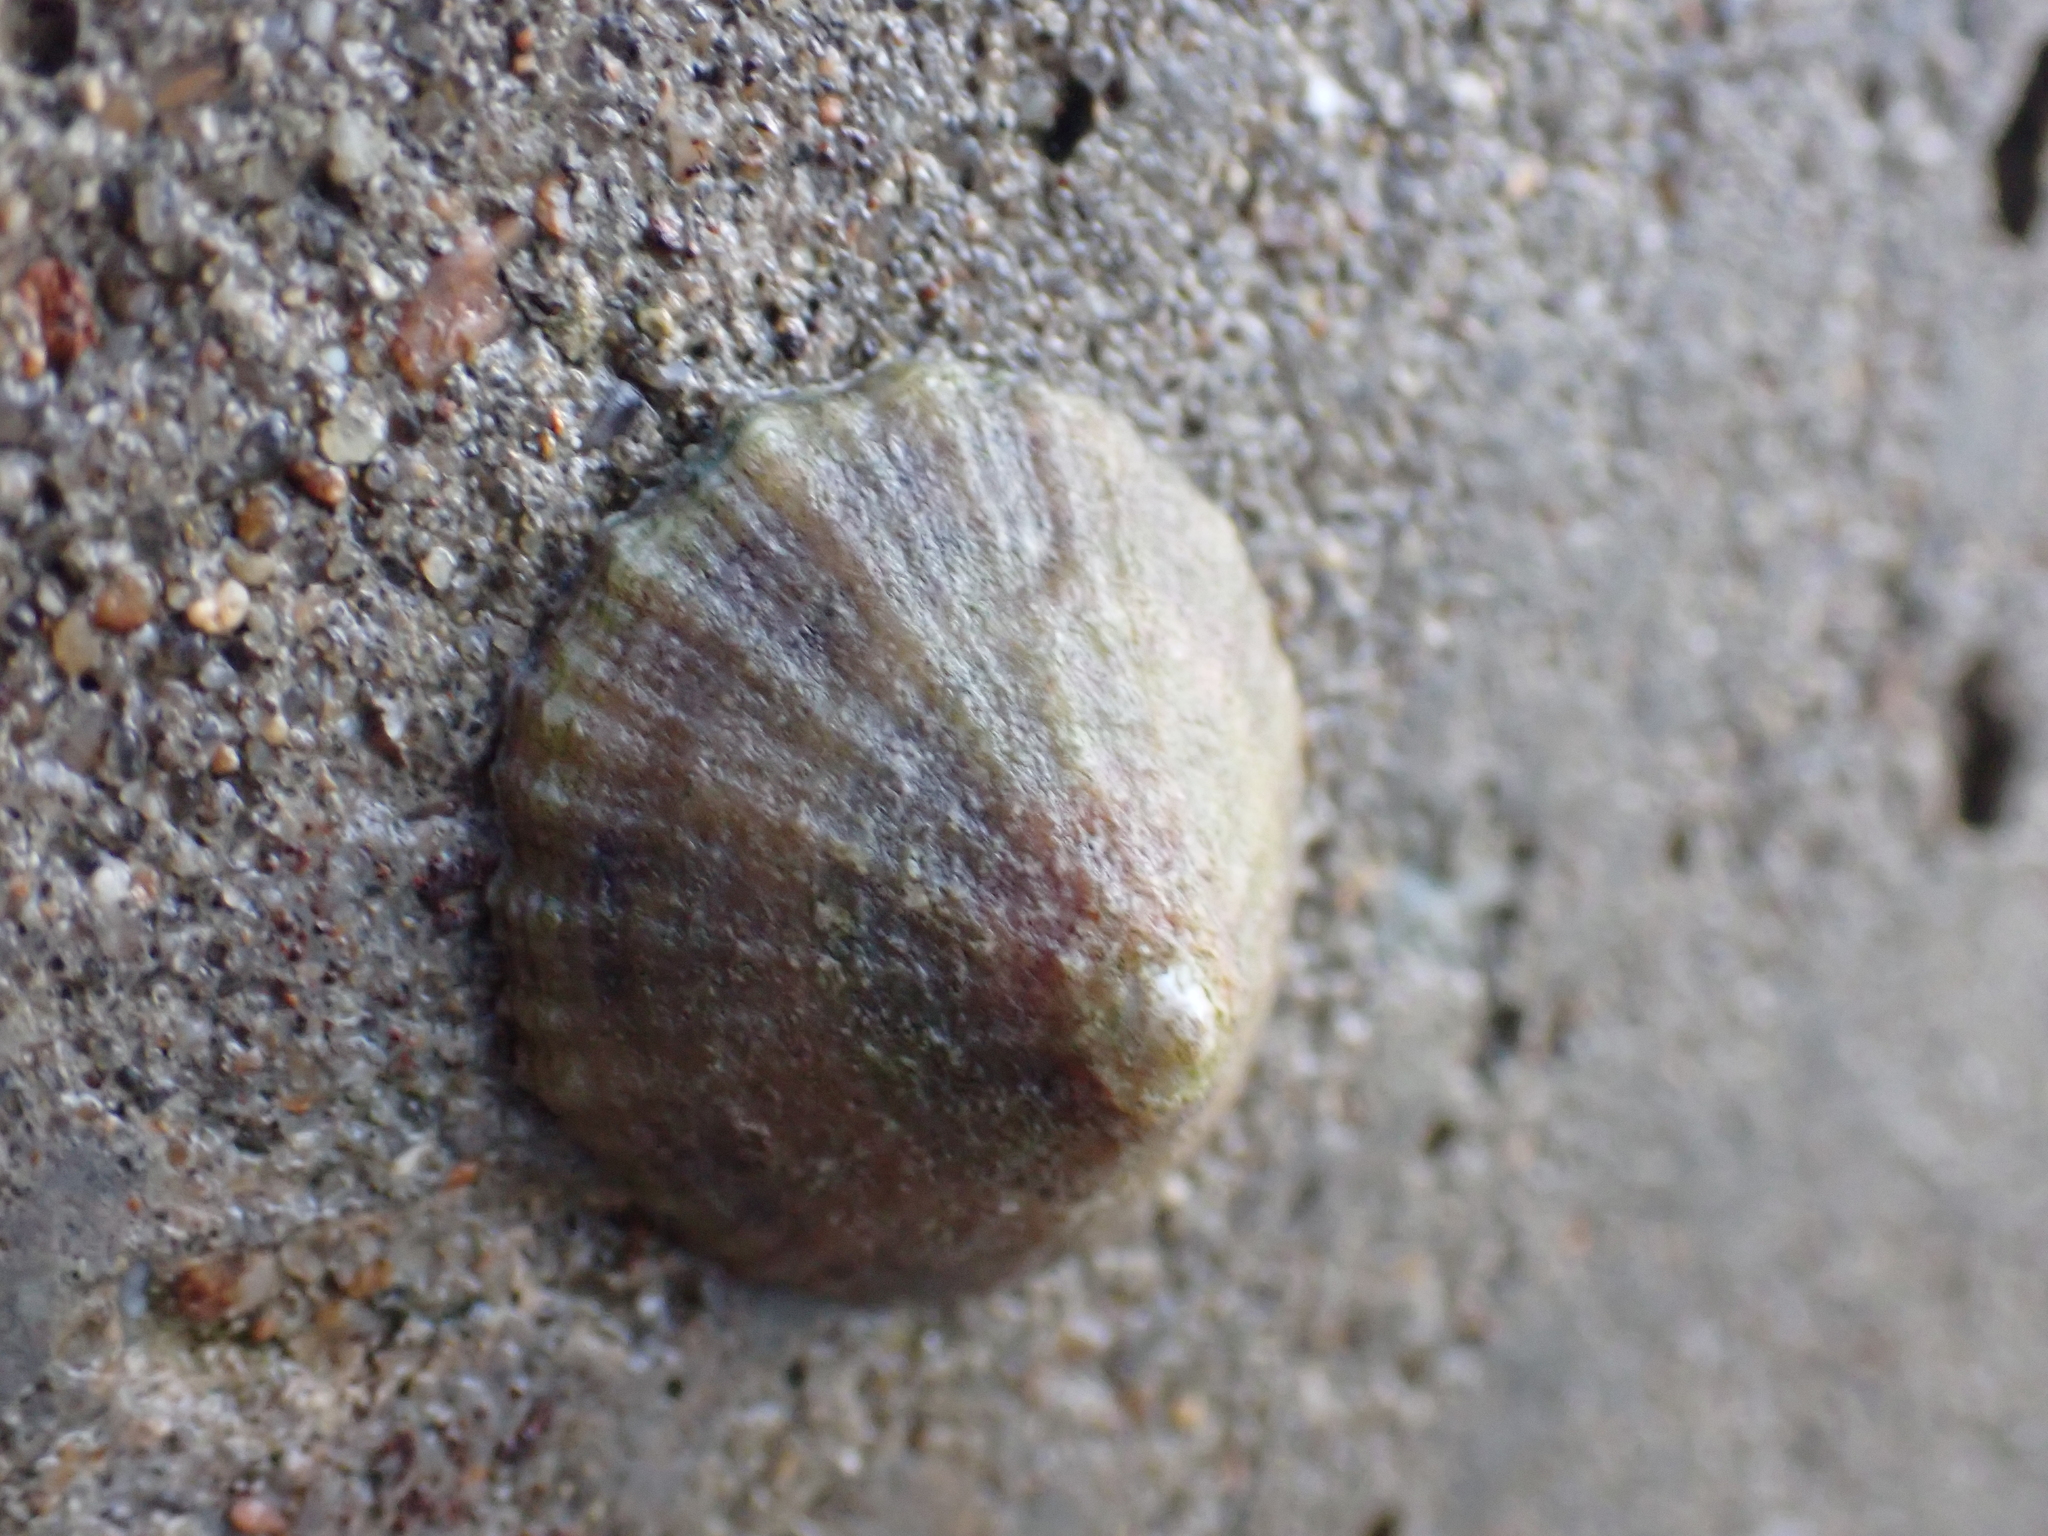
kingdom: Animalia
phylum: Mollusca
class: Gastropoda
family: Patellidae
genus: Patella
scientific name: Patella vulgata
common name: Common limpet
